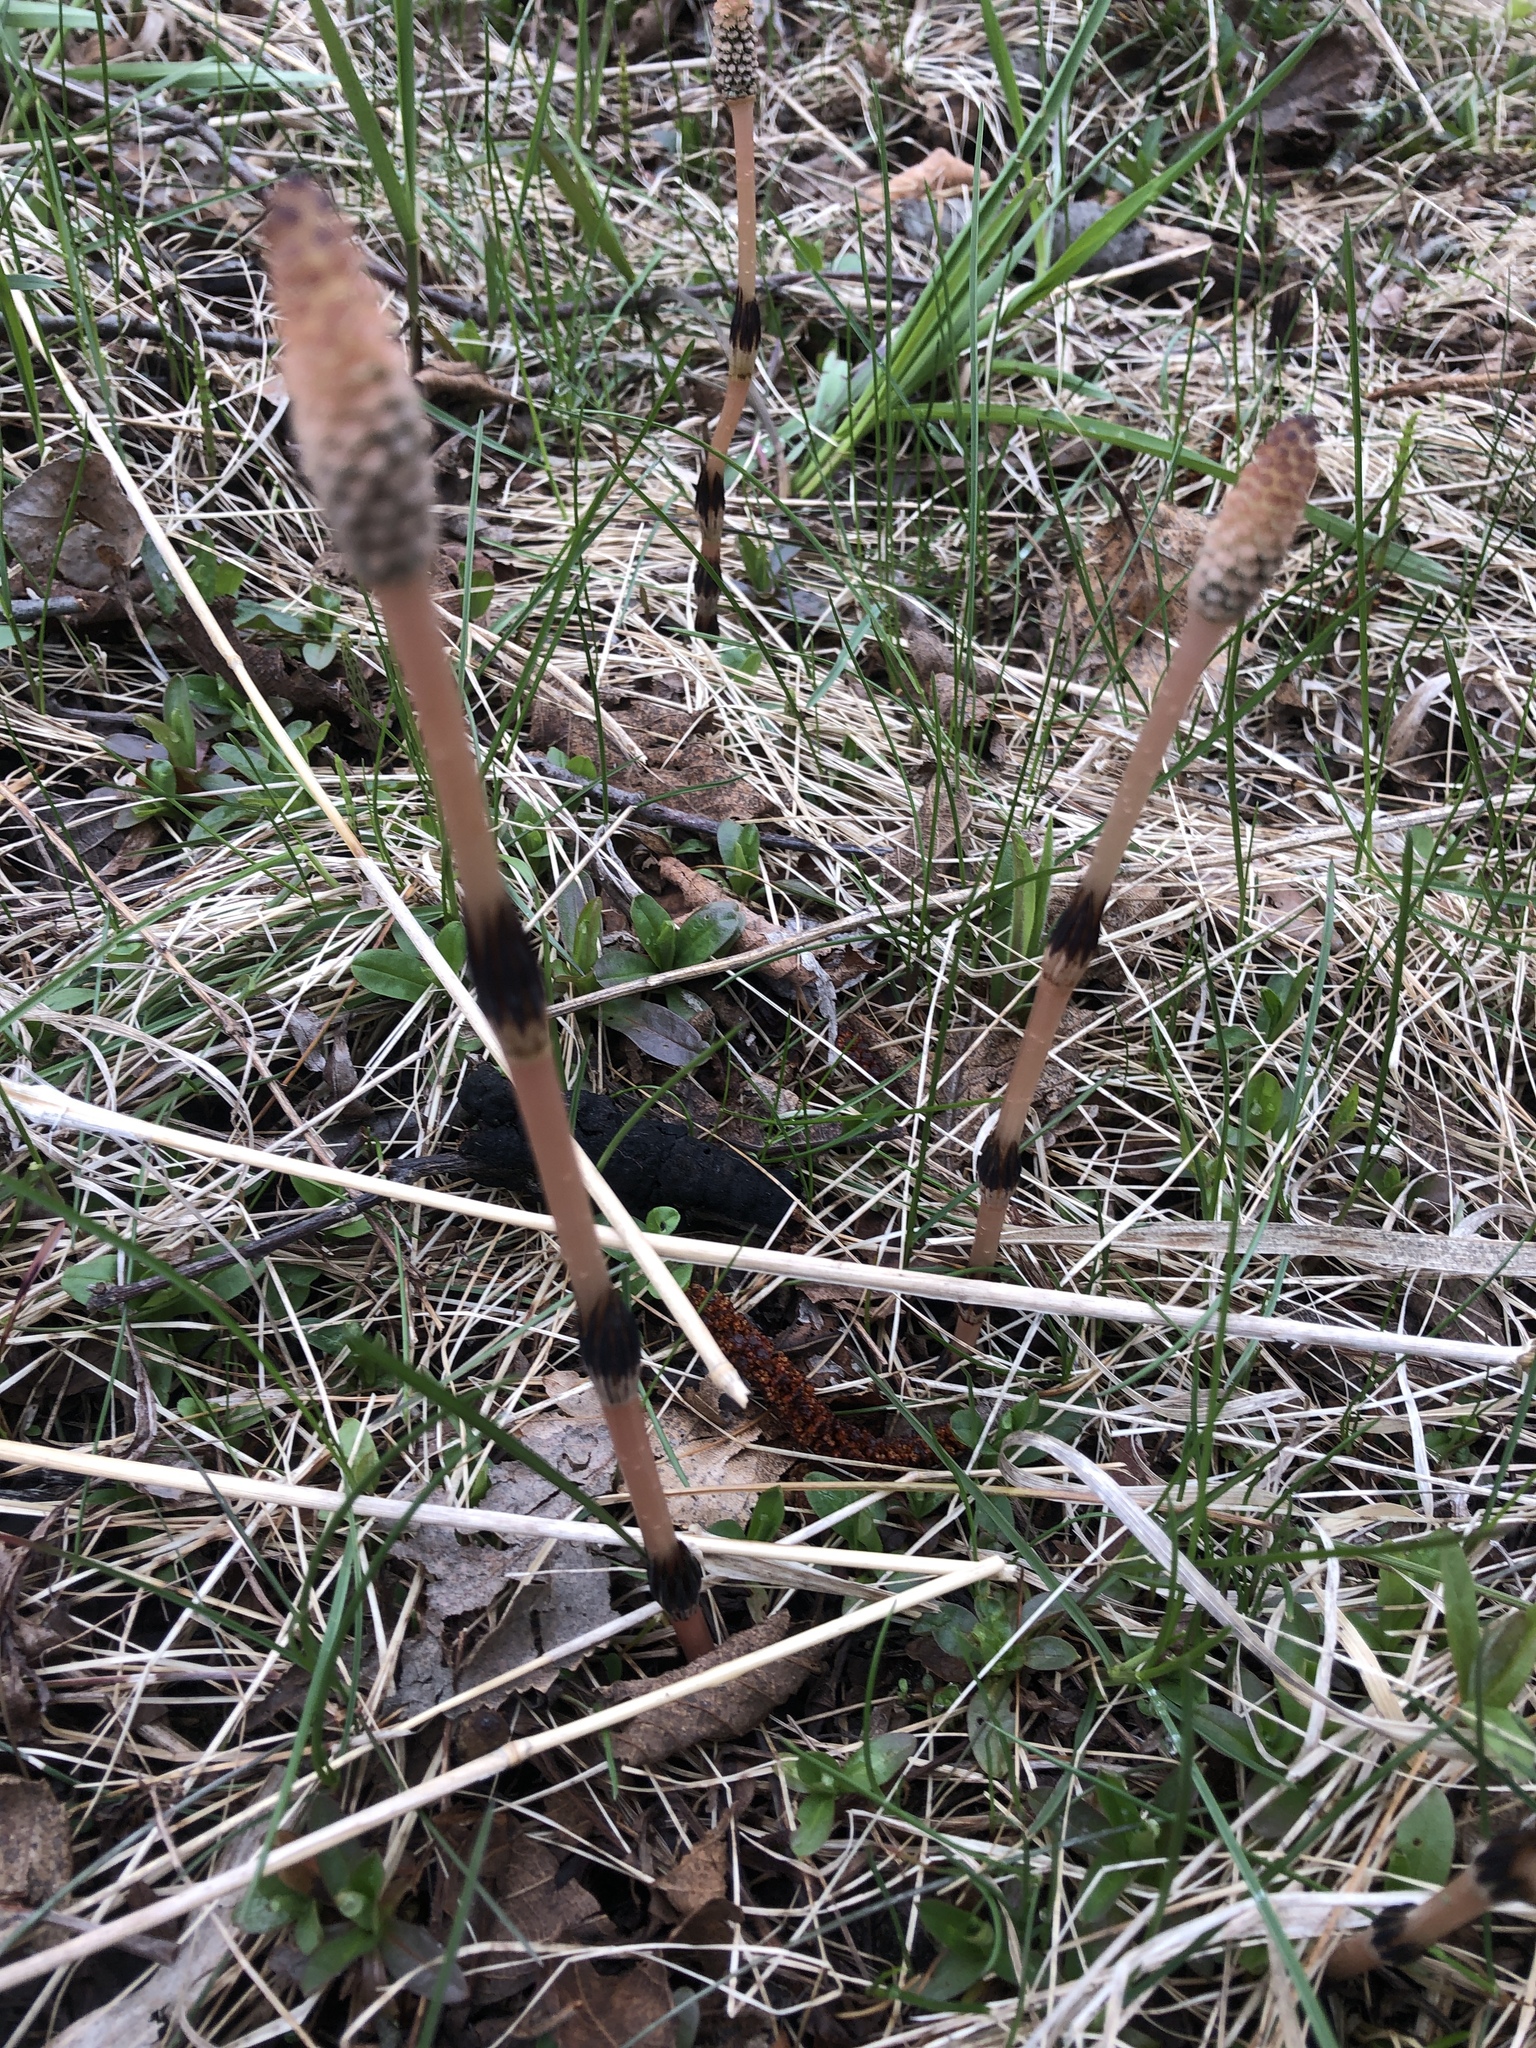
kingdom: Plantae
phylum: Tracheophyta
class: Polypodiopsida
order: Equisetales
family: Equisetaceae
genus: Equisetum
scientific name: Equisetum arvense
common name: Field horsetail
